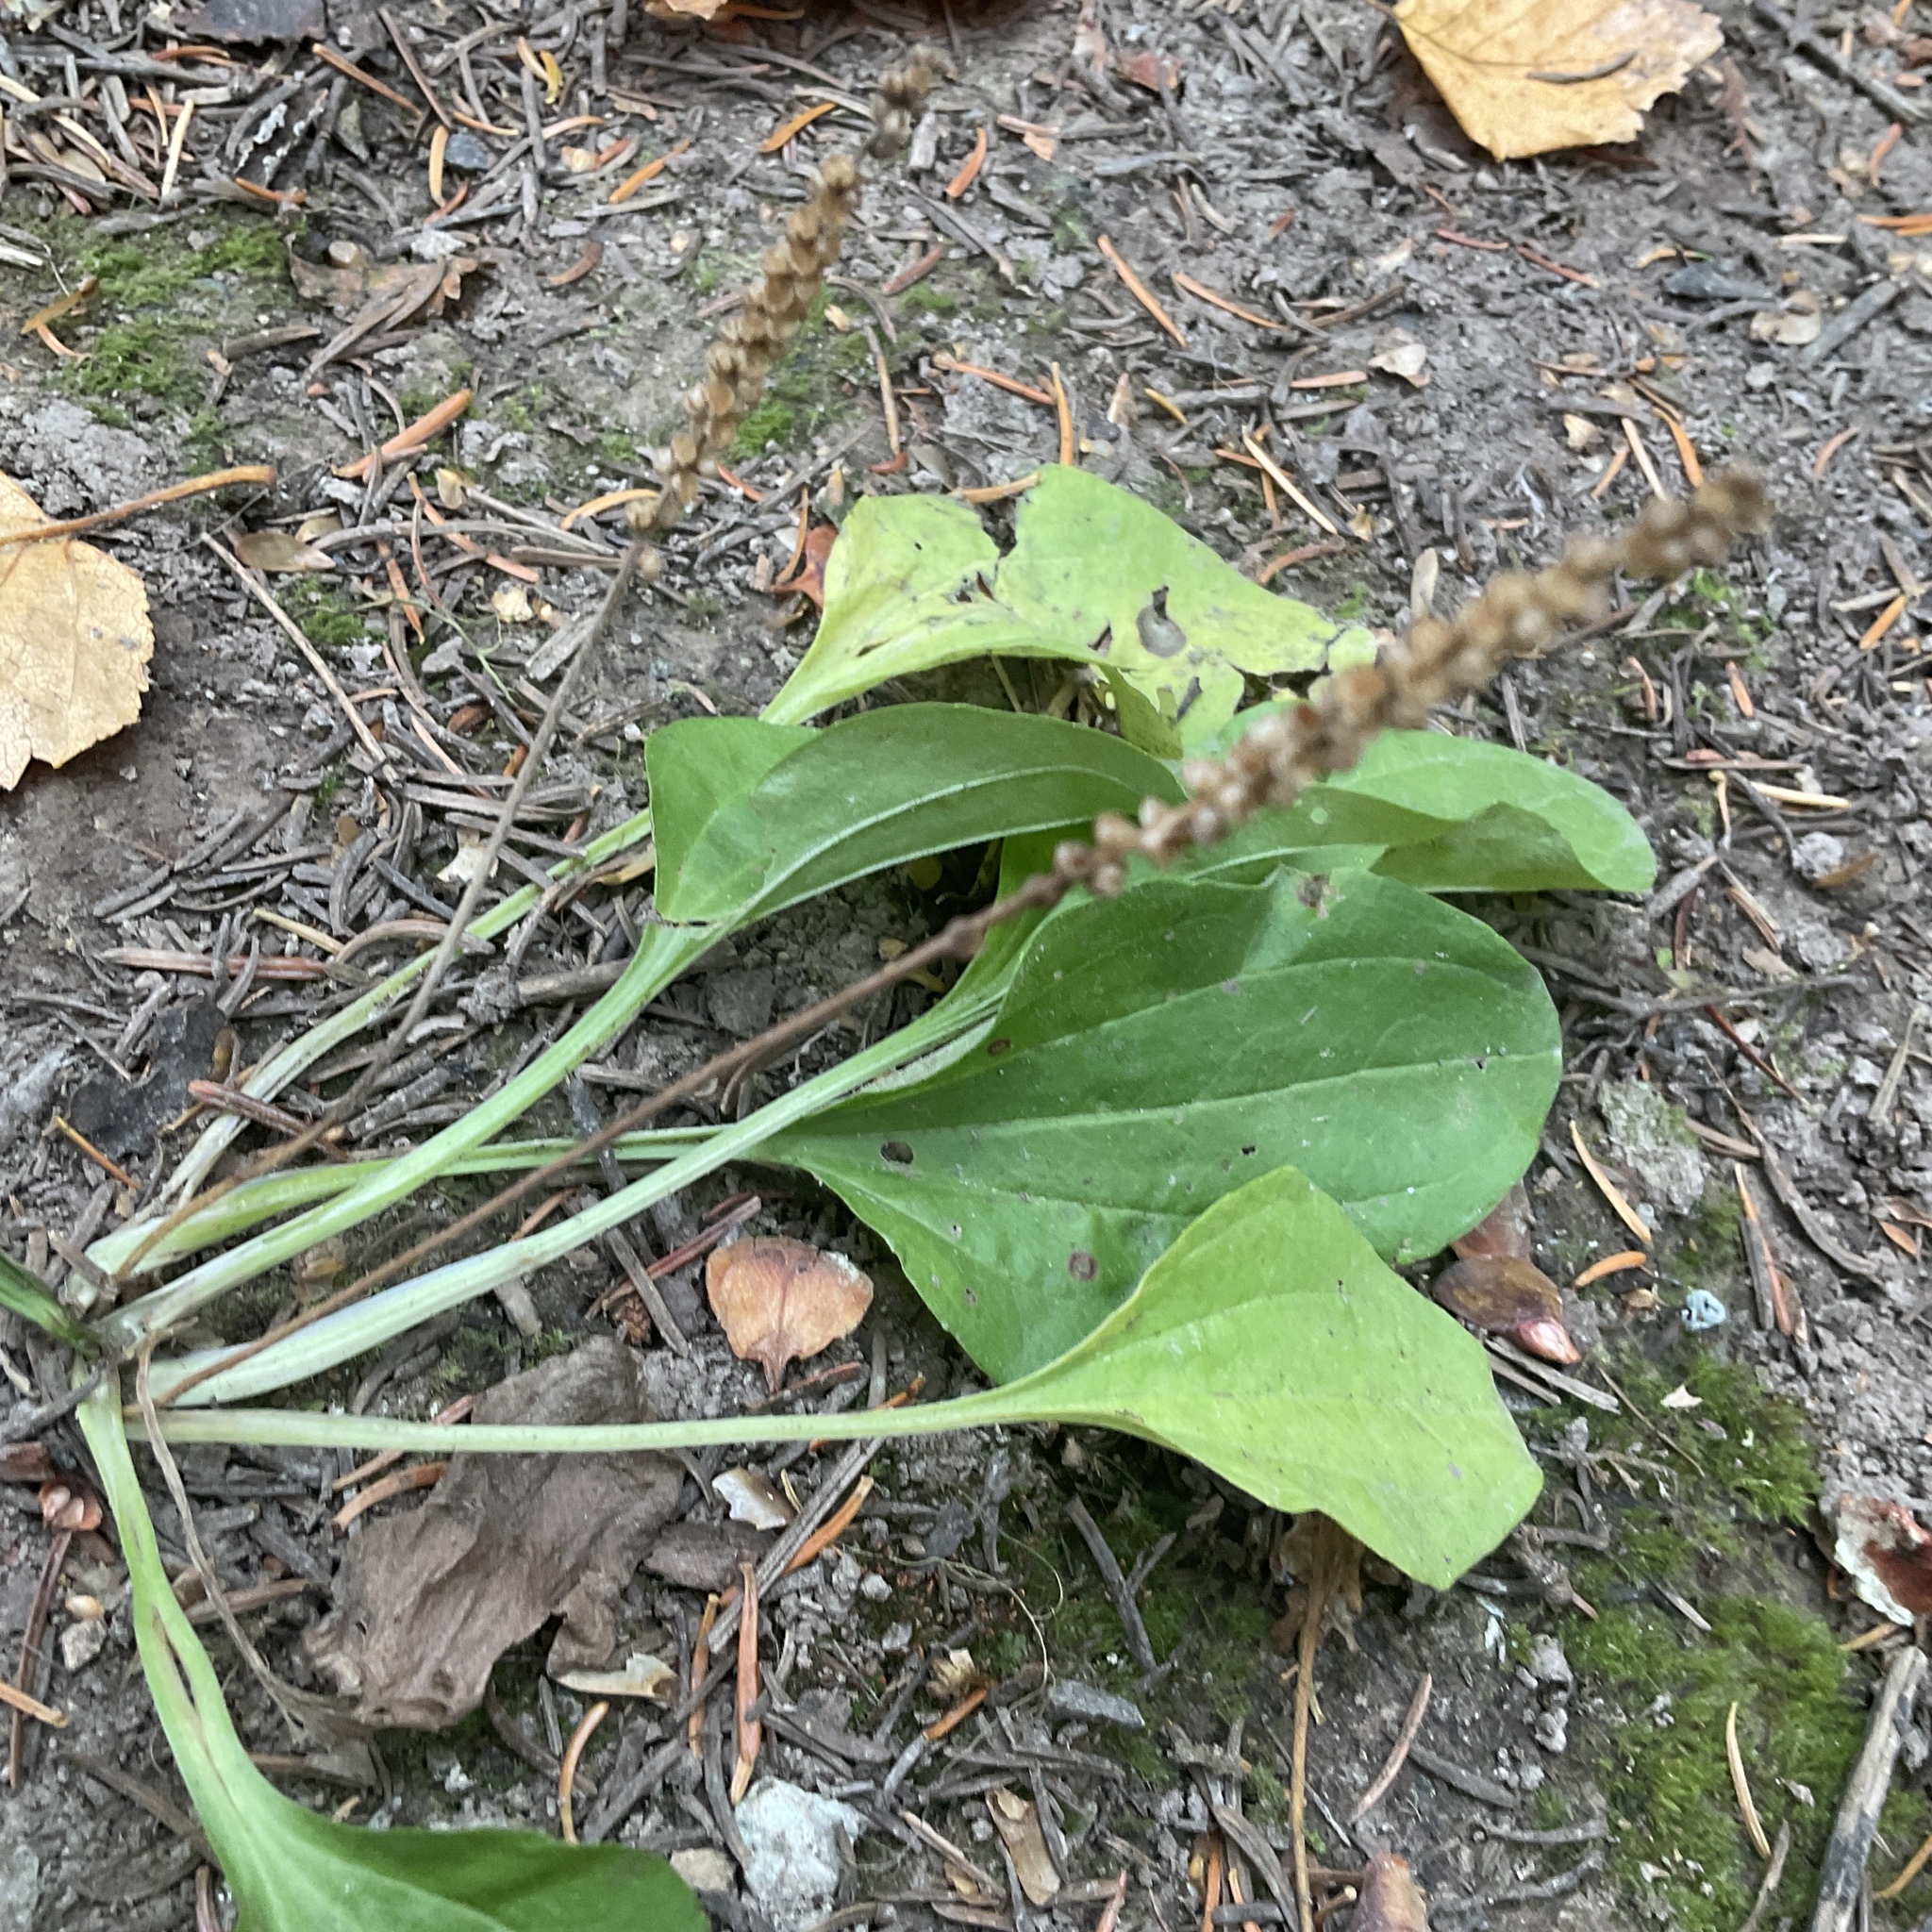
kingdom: Plantae
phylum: Tracheophyta
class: Magnoliopsida
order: Lamiales
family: Plantaginaceae
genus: Plantago
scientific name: Plantago major
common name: Common plantain
